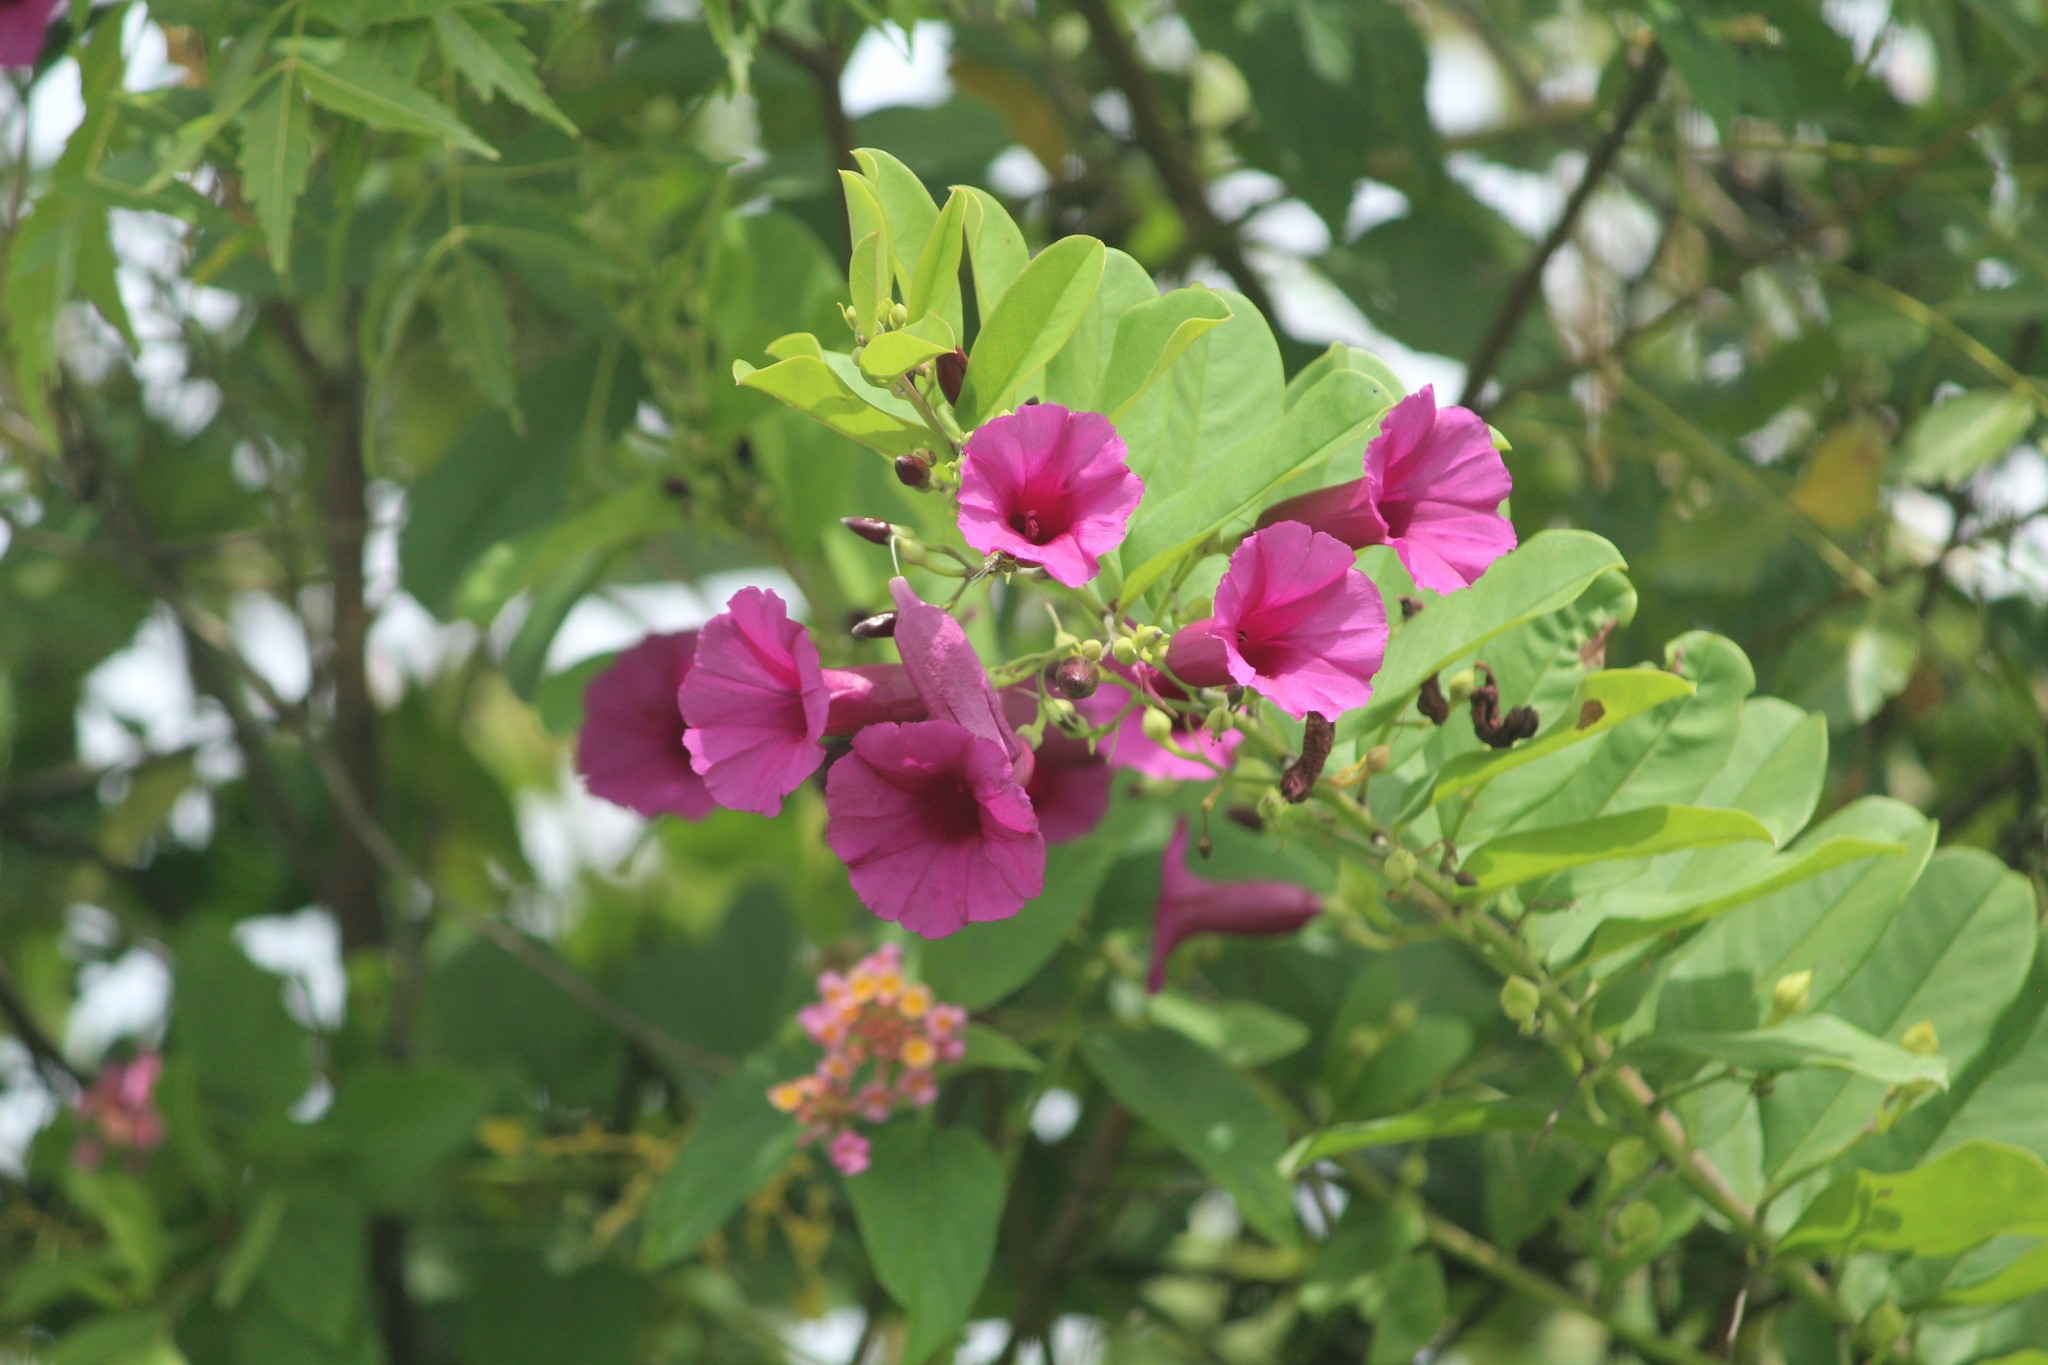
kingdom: Plantae
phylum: Tracheophyta
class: Magnoliopsida
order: Solanales
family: Convolvulaceae
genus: Argyreia
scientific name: Argyreia cuneata
